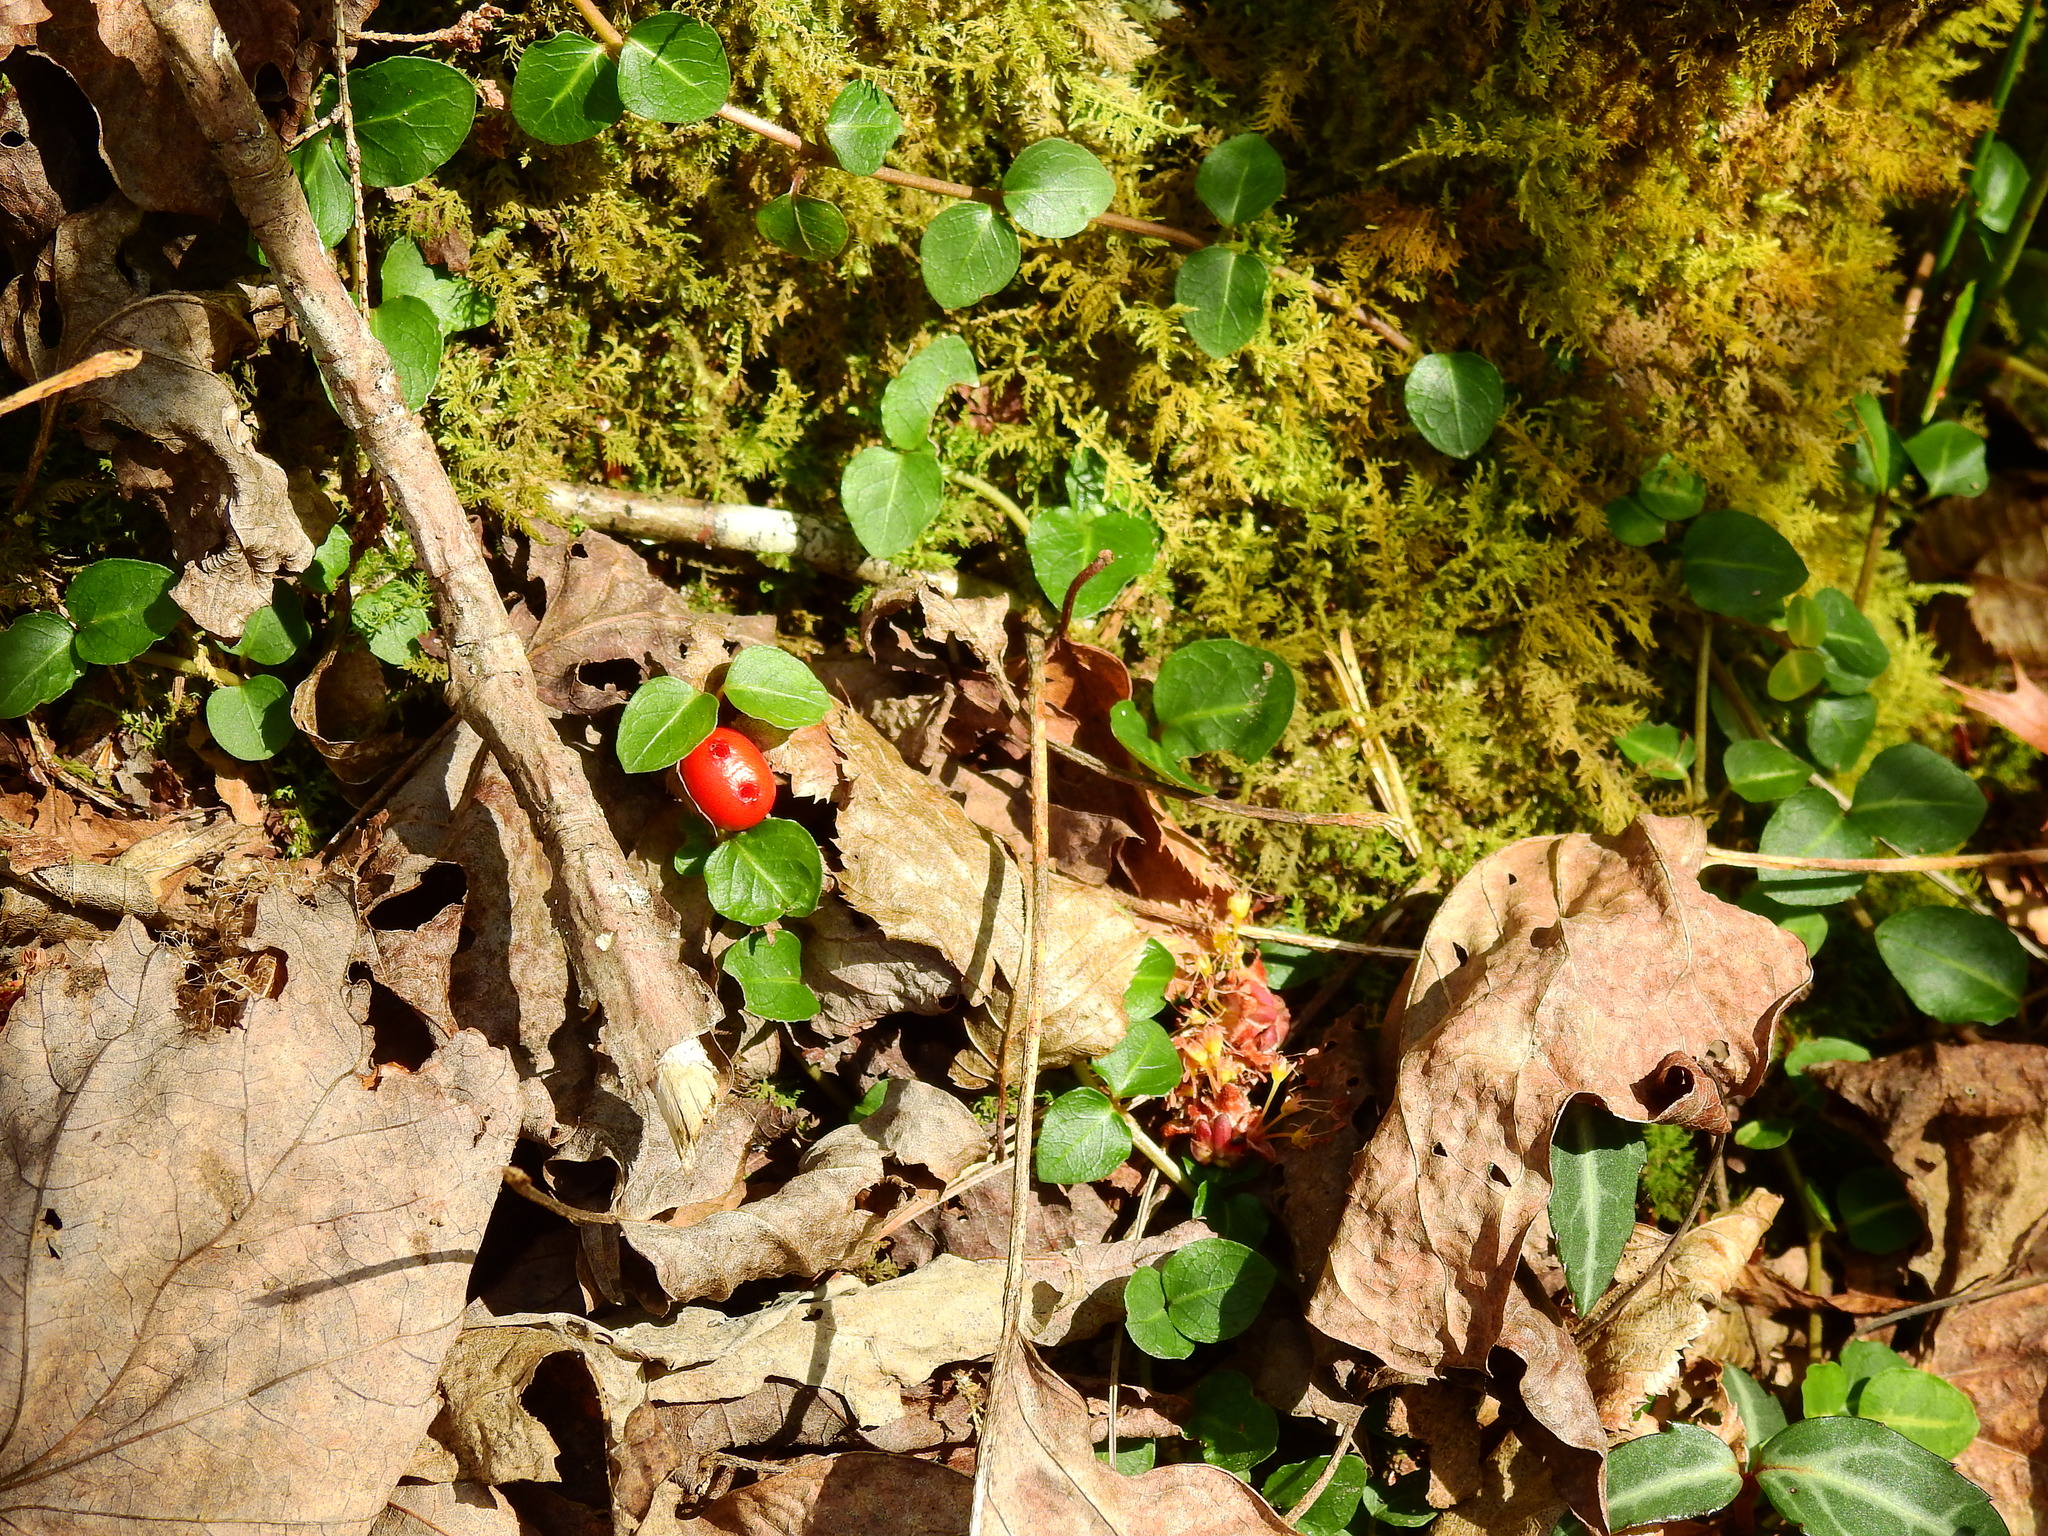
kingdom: Plantae
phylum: Tracheophyta
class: Magnoliopsida
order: Gentianales
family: Rubiaceae
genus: Mitchella
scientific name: Mitchella repens
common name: Partridge-berry
